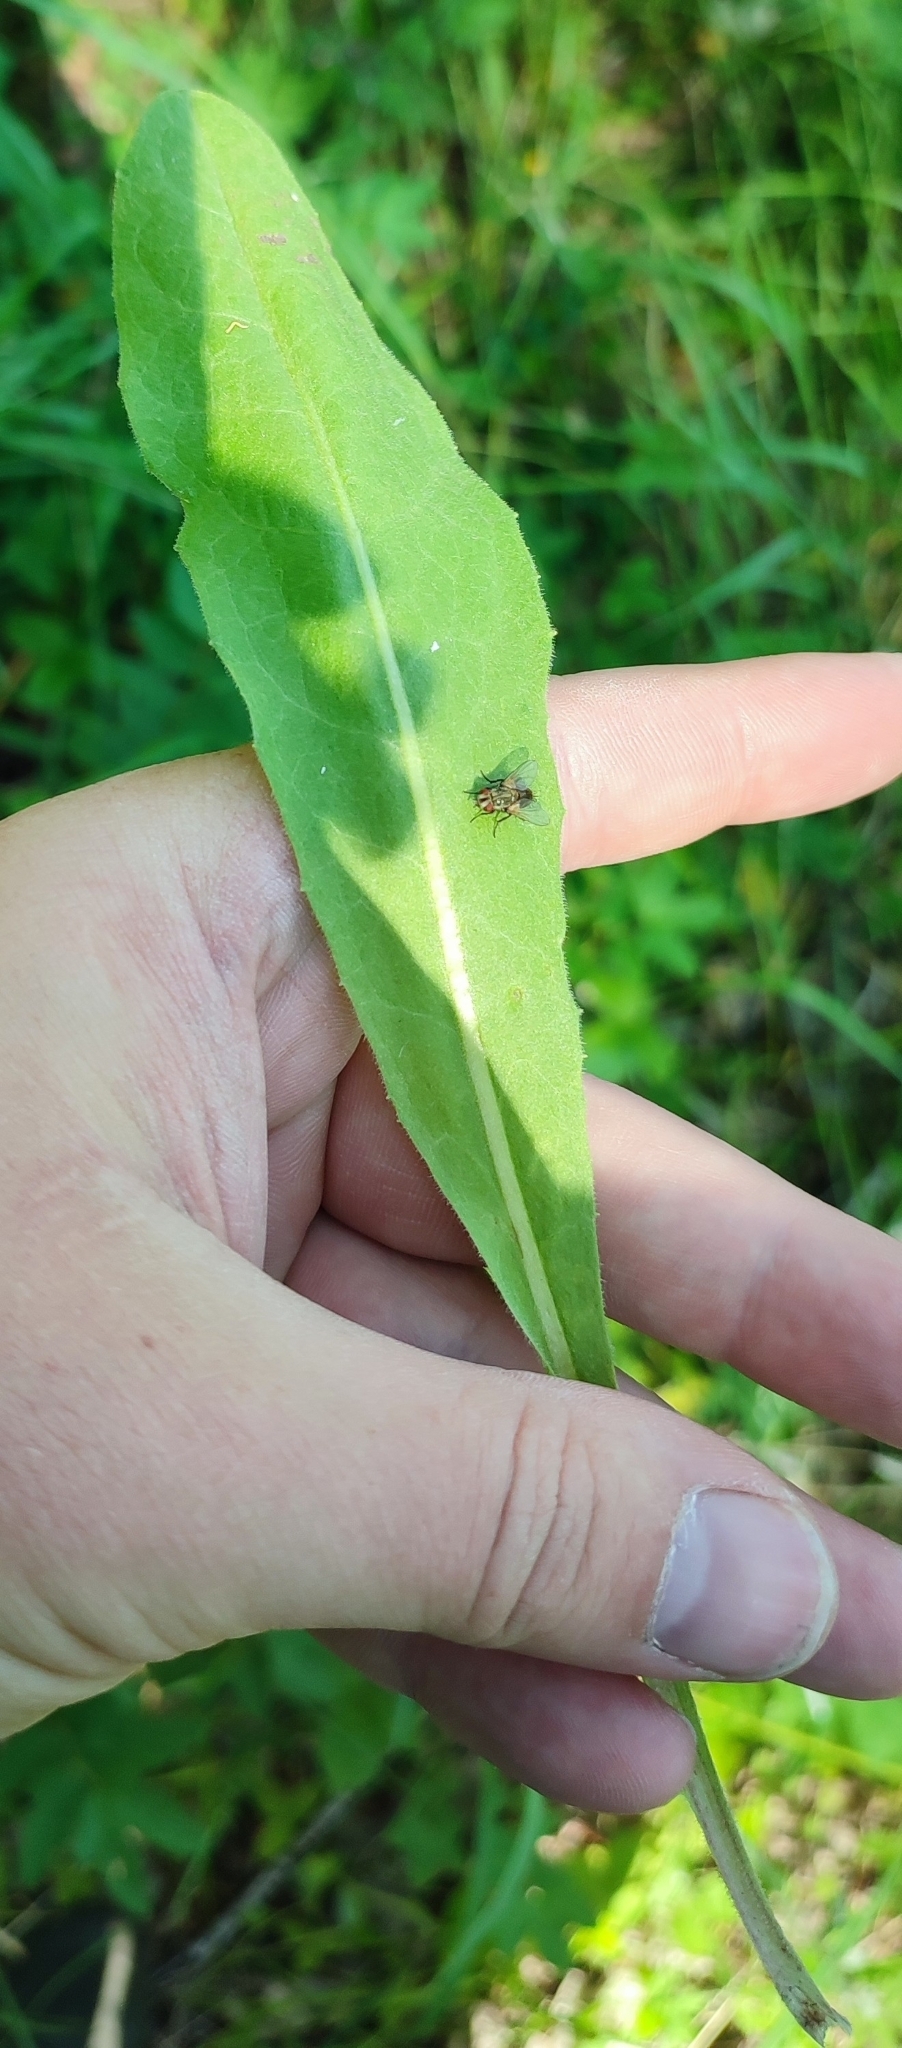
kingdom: Plantae
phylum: Tracheophyta
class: Magnoliopsida
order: Asterales
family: Asteraceae
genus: Crepis
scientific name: Crepis praemorsa
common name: Leafless hawk's-beard
